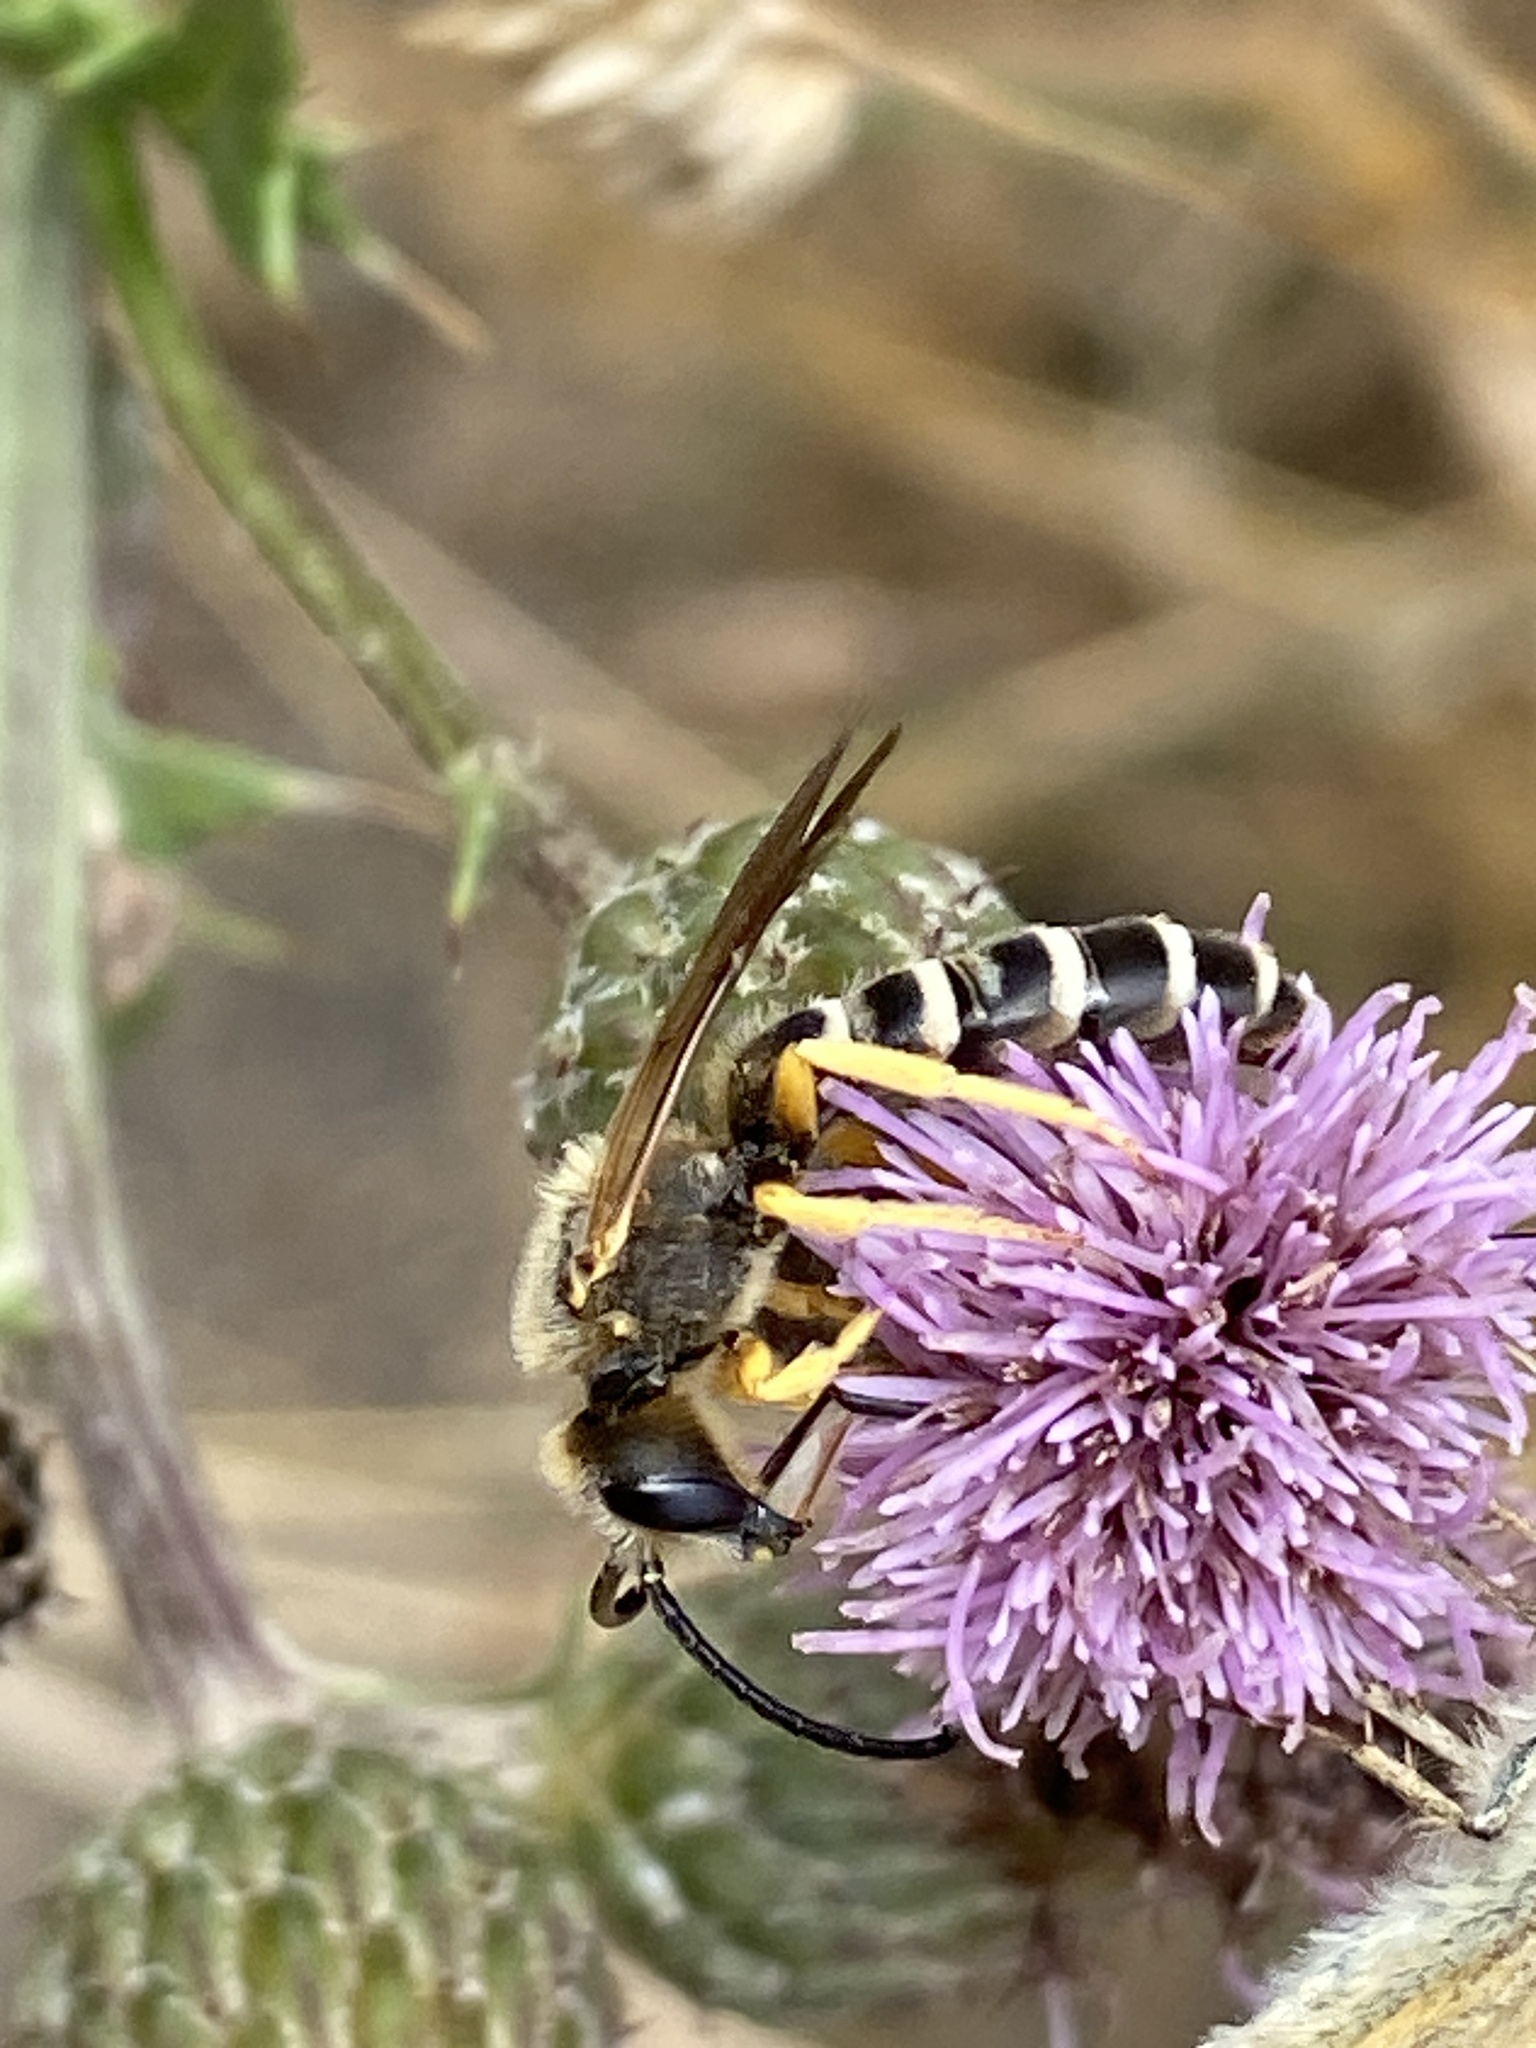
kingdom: Animalia
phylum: Arthropoda
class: Insecta
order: Hymenoptera
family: Halictidae
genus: Halictus
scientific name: Halictus scabiosae
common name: Great banded furrow bee
